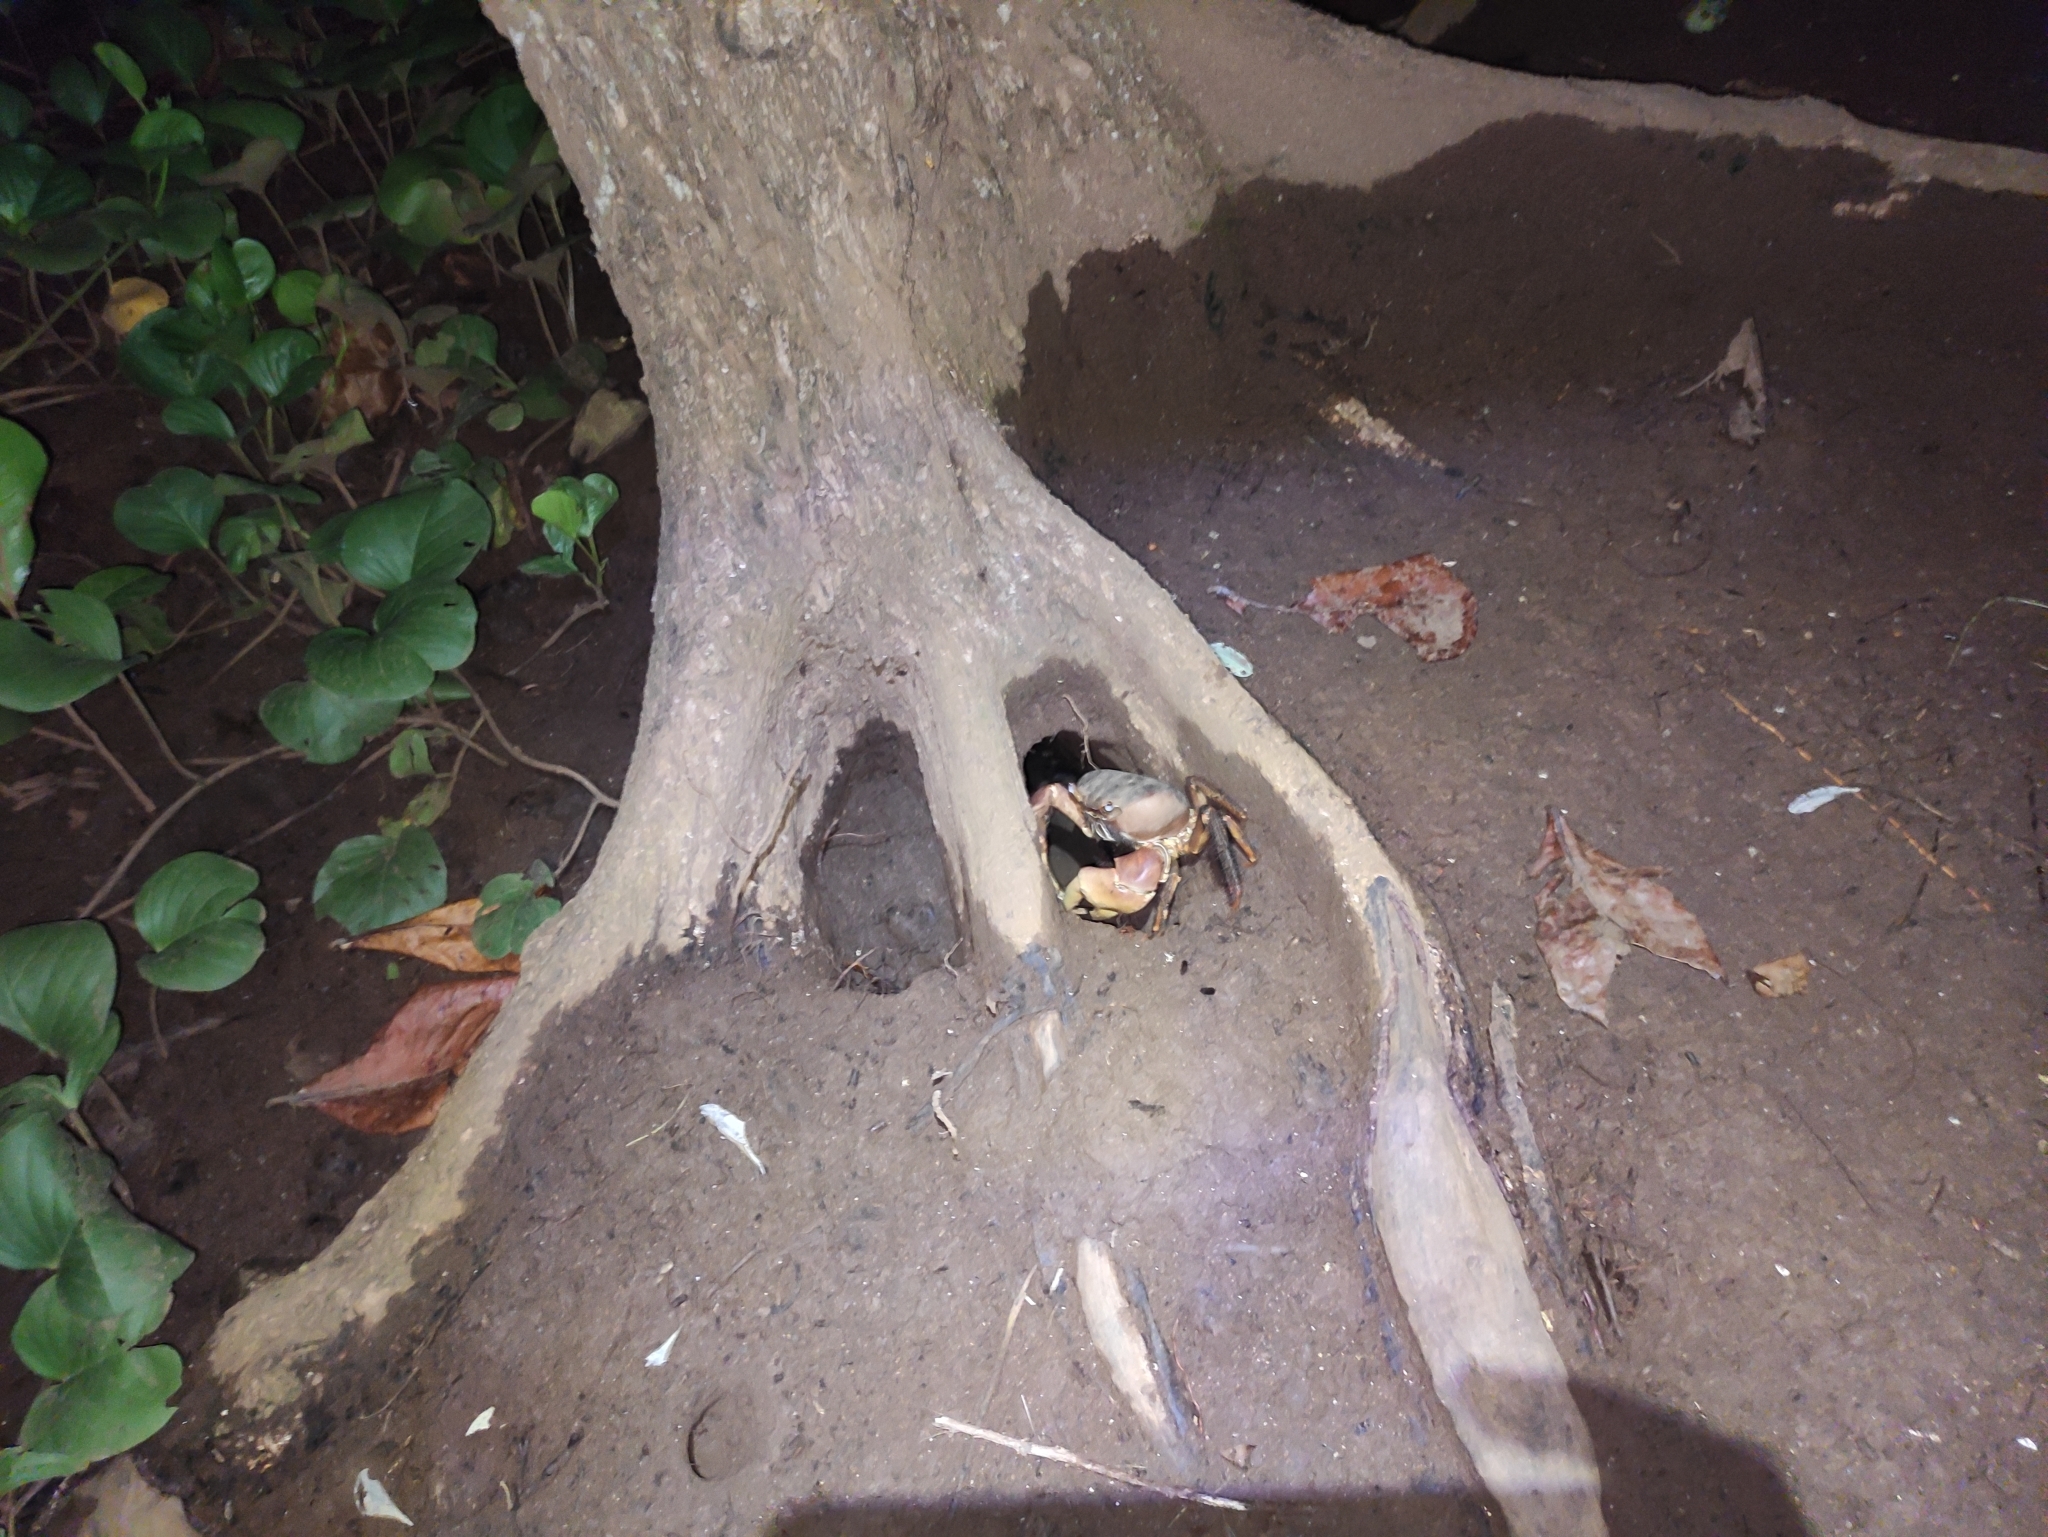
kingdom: Animalia
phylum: Arthropoda
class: Malacostraca
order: Decapoda
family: Gecarcinidae
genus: Cardisoma
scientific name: Cardisoma carnifex
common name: Brown land crab
